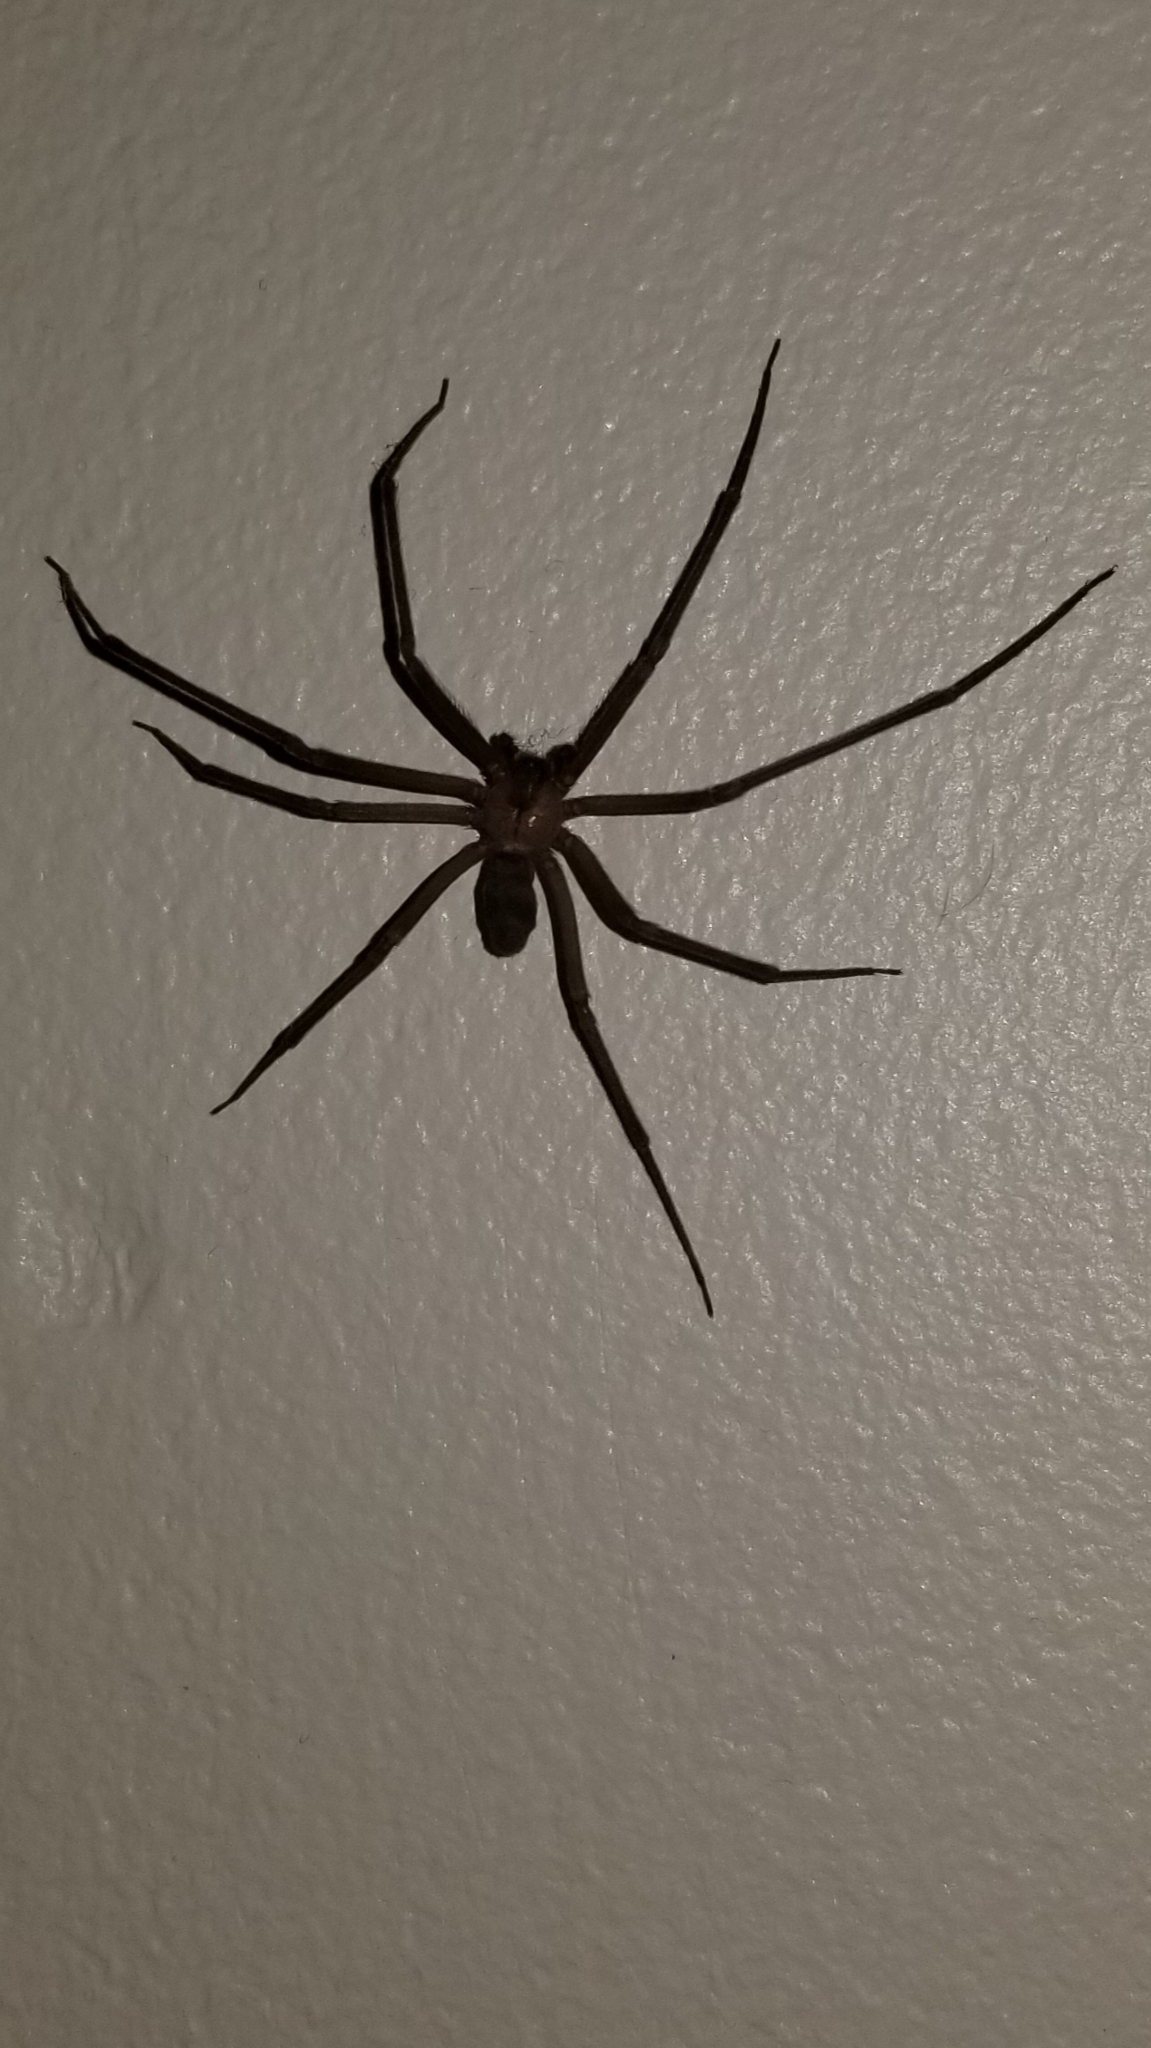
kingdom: Animalia
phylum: Arthropoda
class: Arachnida
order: Araneae
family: Sicariidae
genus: Loxosceles
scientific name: Loxosceles reclusa
